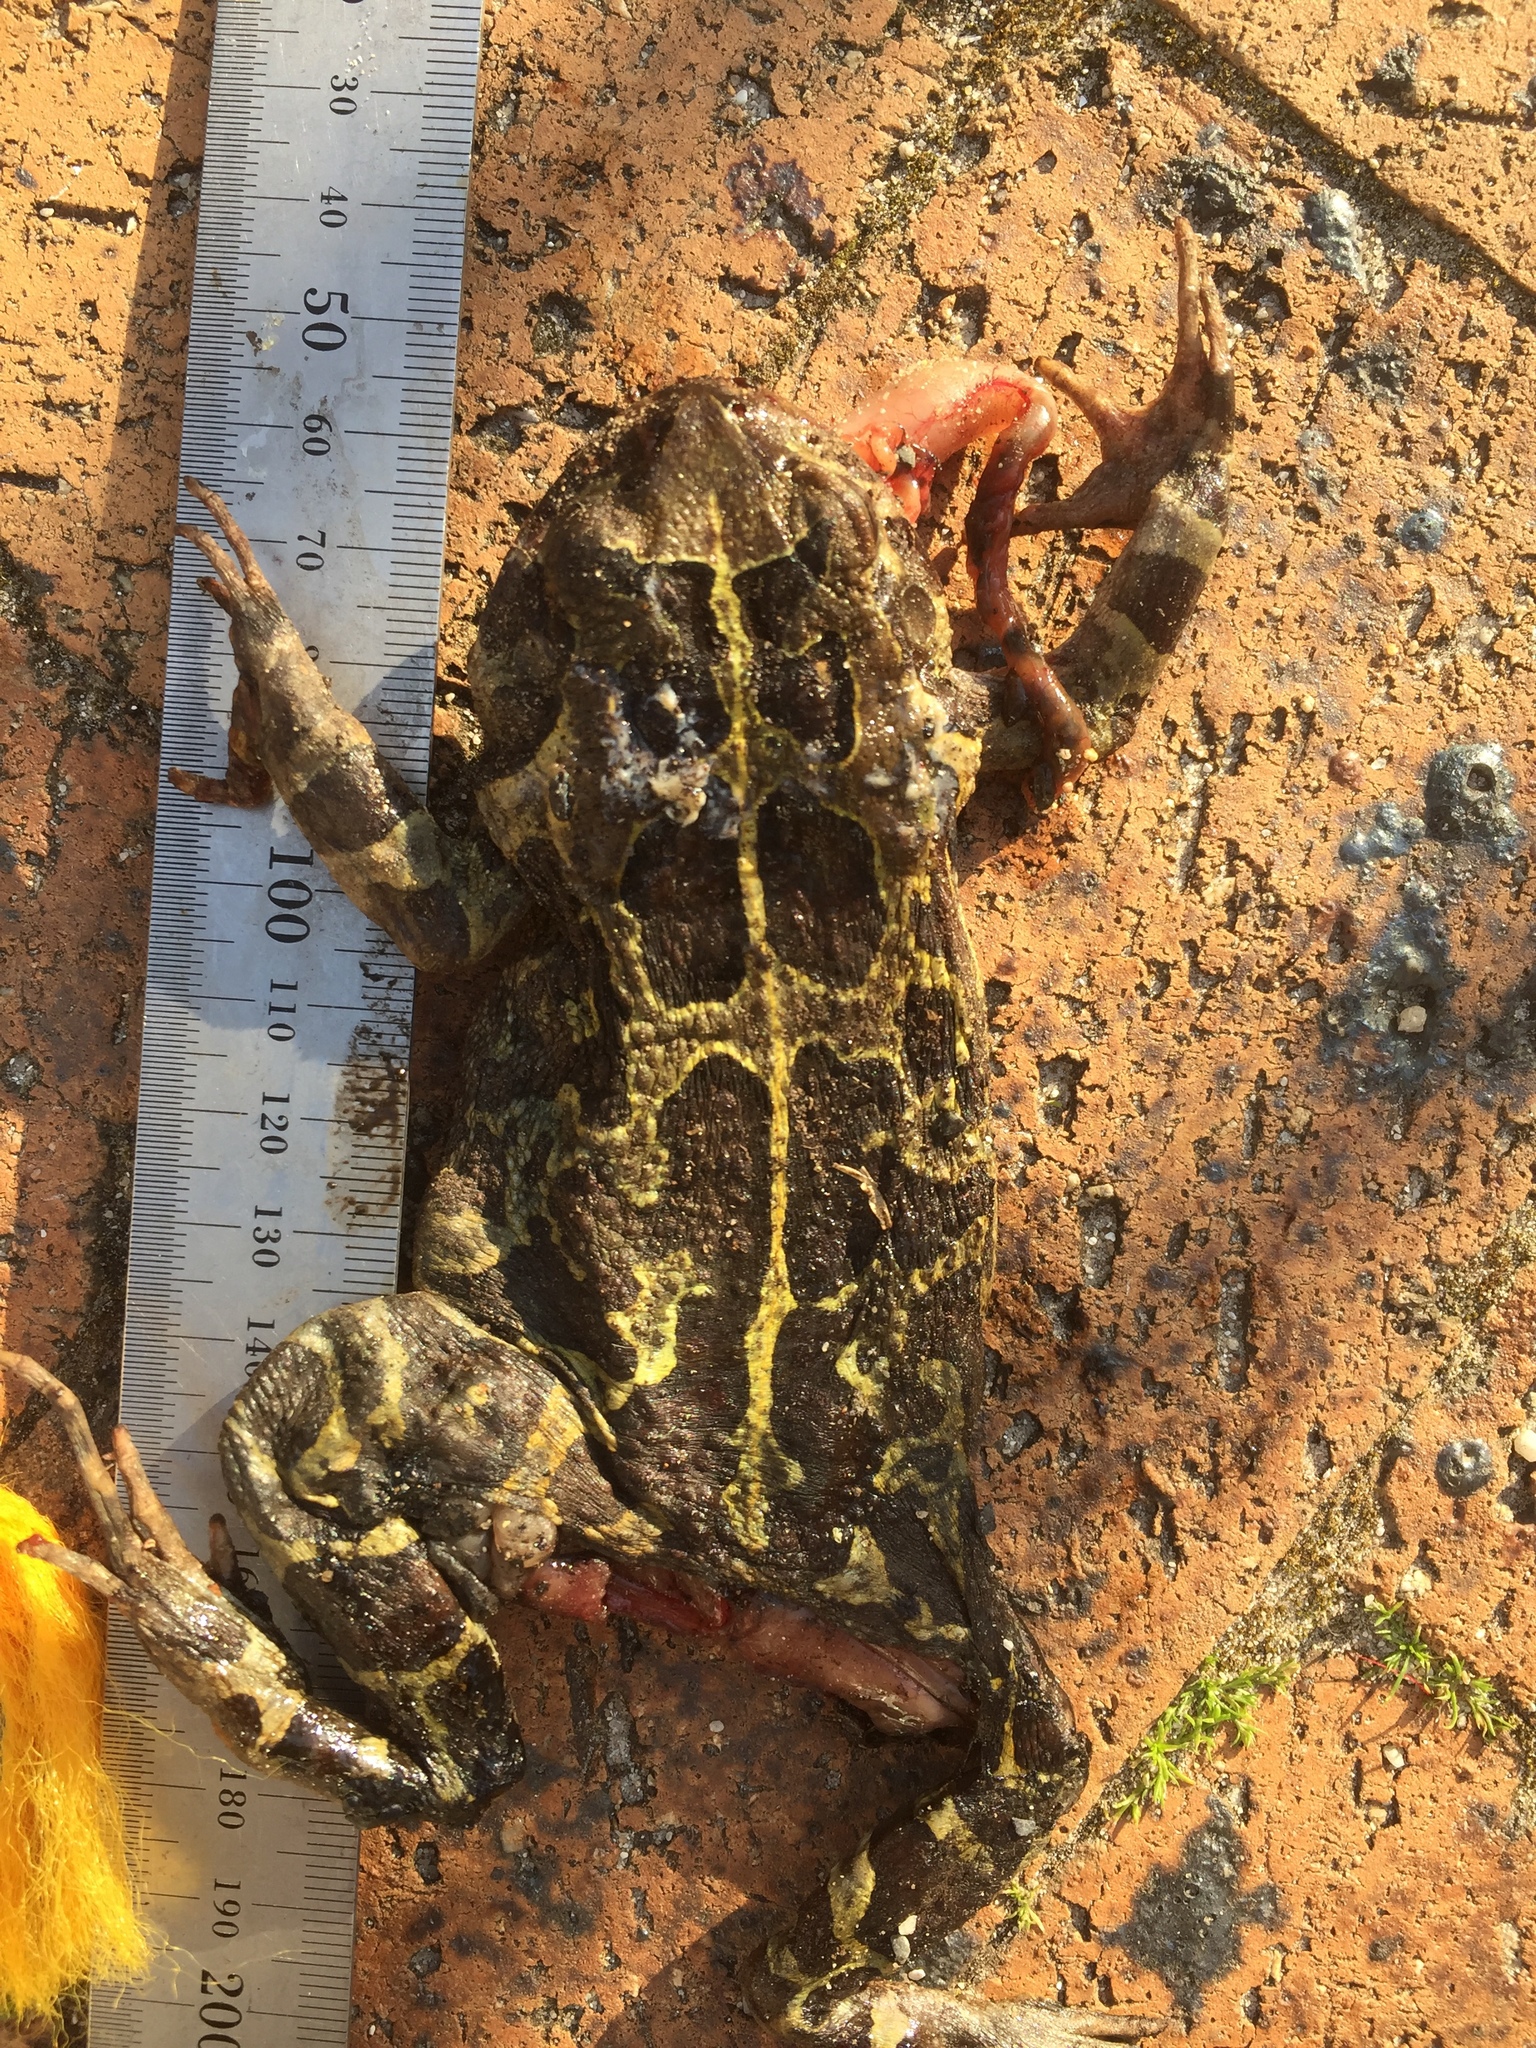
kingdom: Animalia
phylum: Chordata
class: Amphibia
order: Anura
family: Bufonidae
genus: Sclerophrys
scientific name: Sclerophrys pantherina
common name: Panther toad
